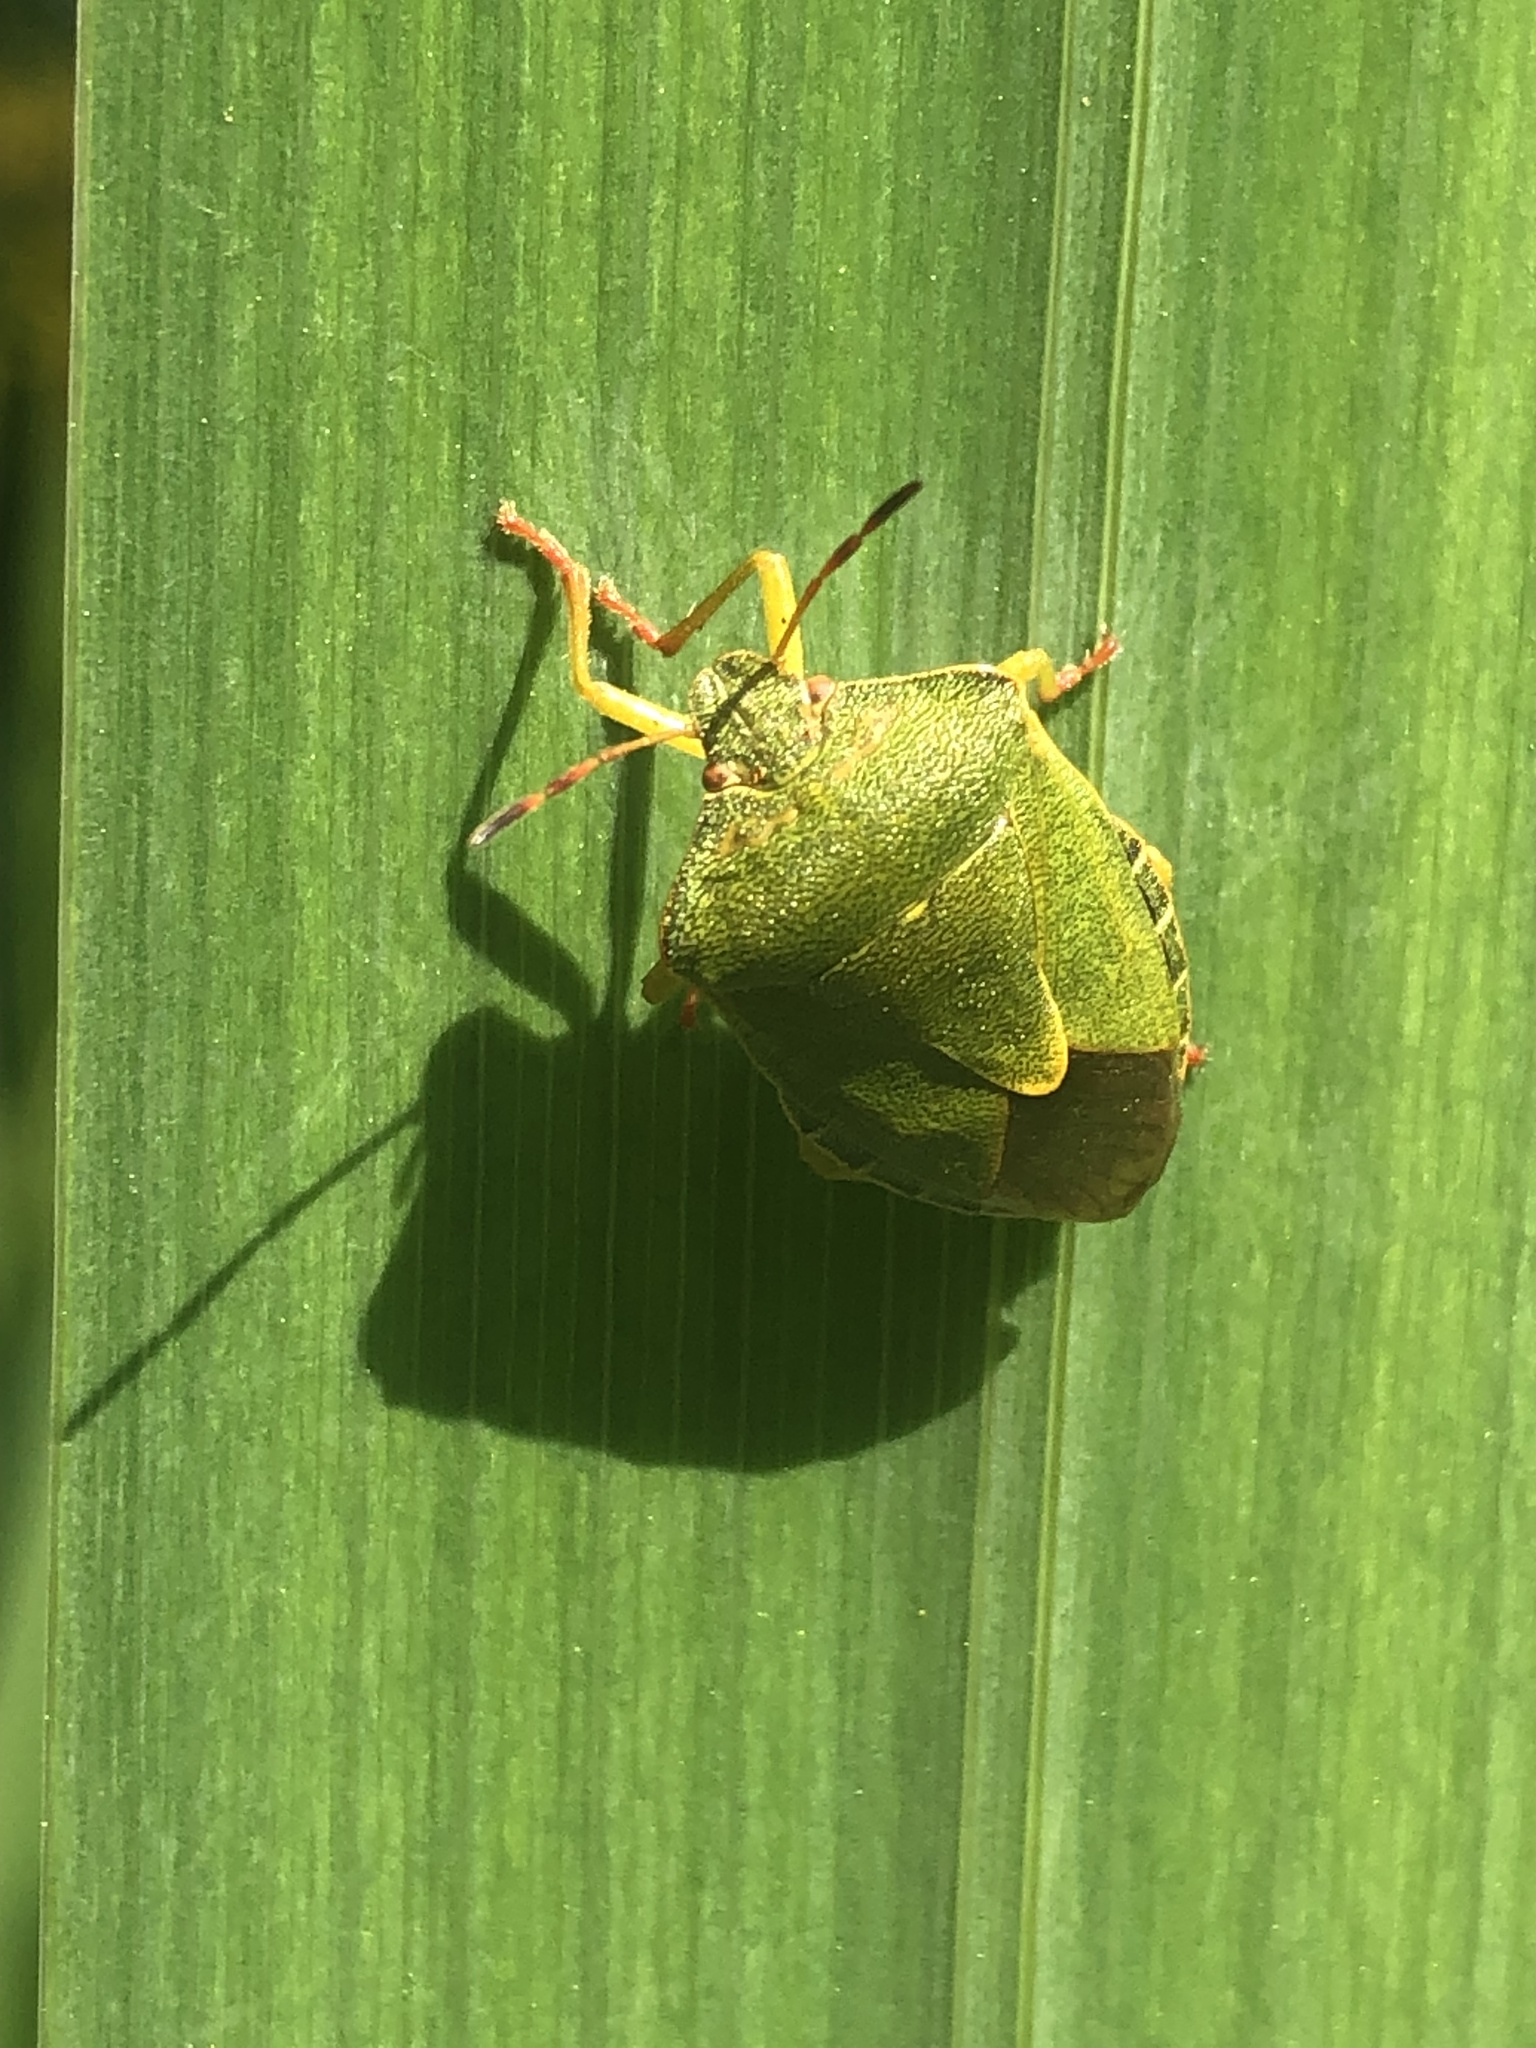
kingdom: Animalia
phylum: Arthropoda
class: Insecta
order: Hemiptera
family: Pentatomidae
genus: Palomena
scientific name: Palomena prasina
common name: Green shieldbug
